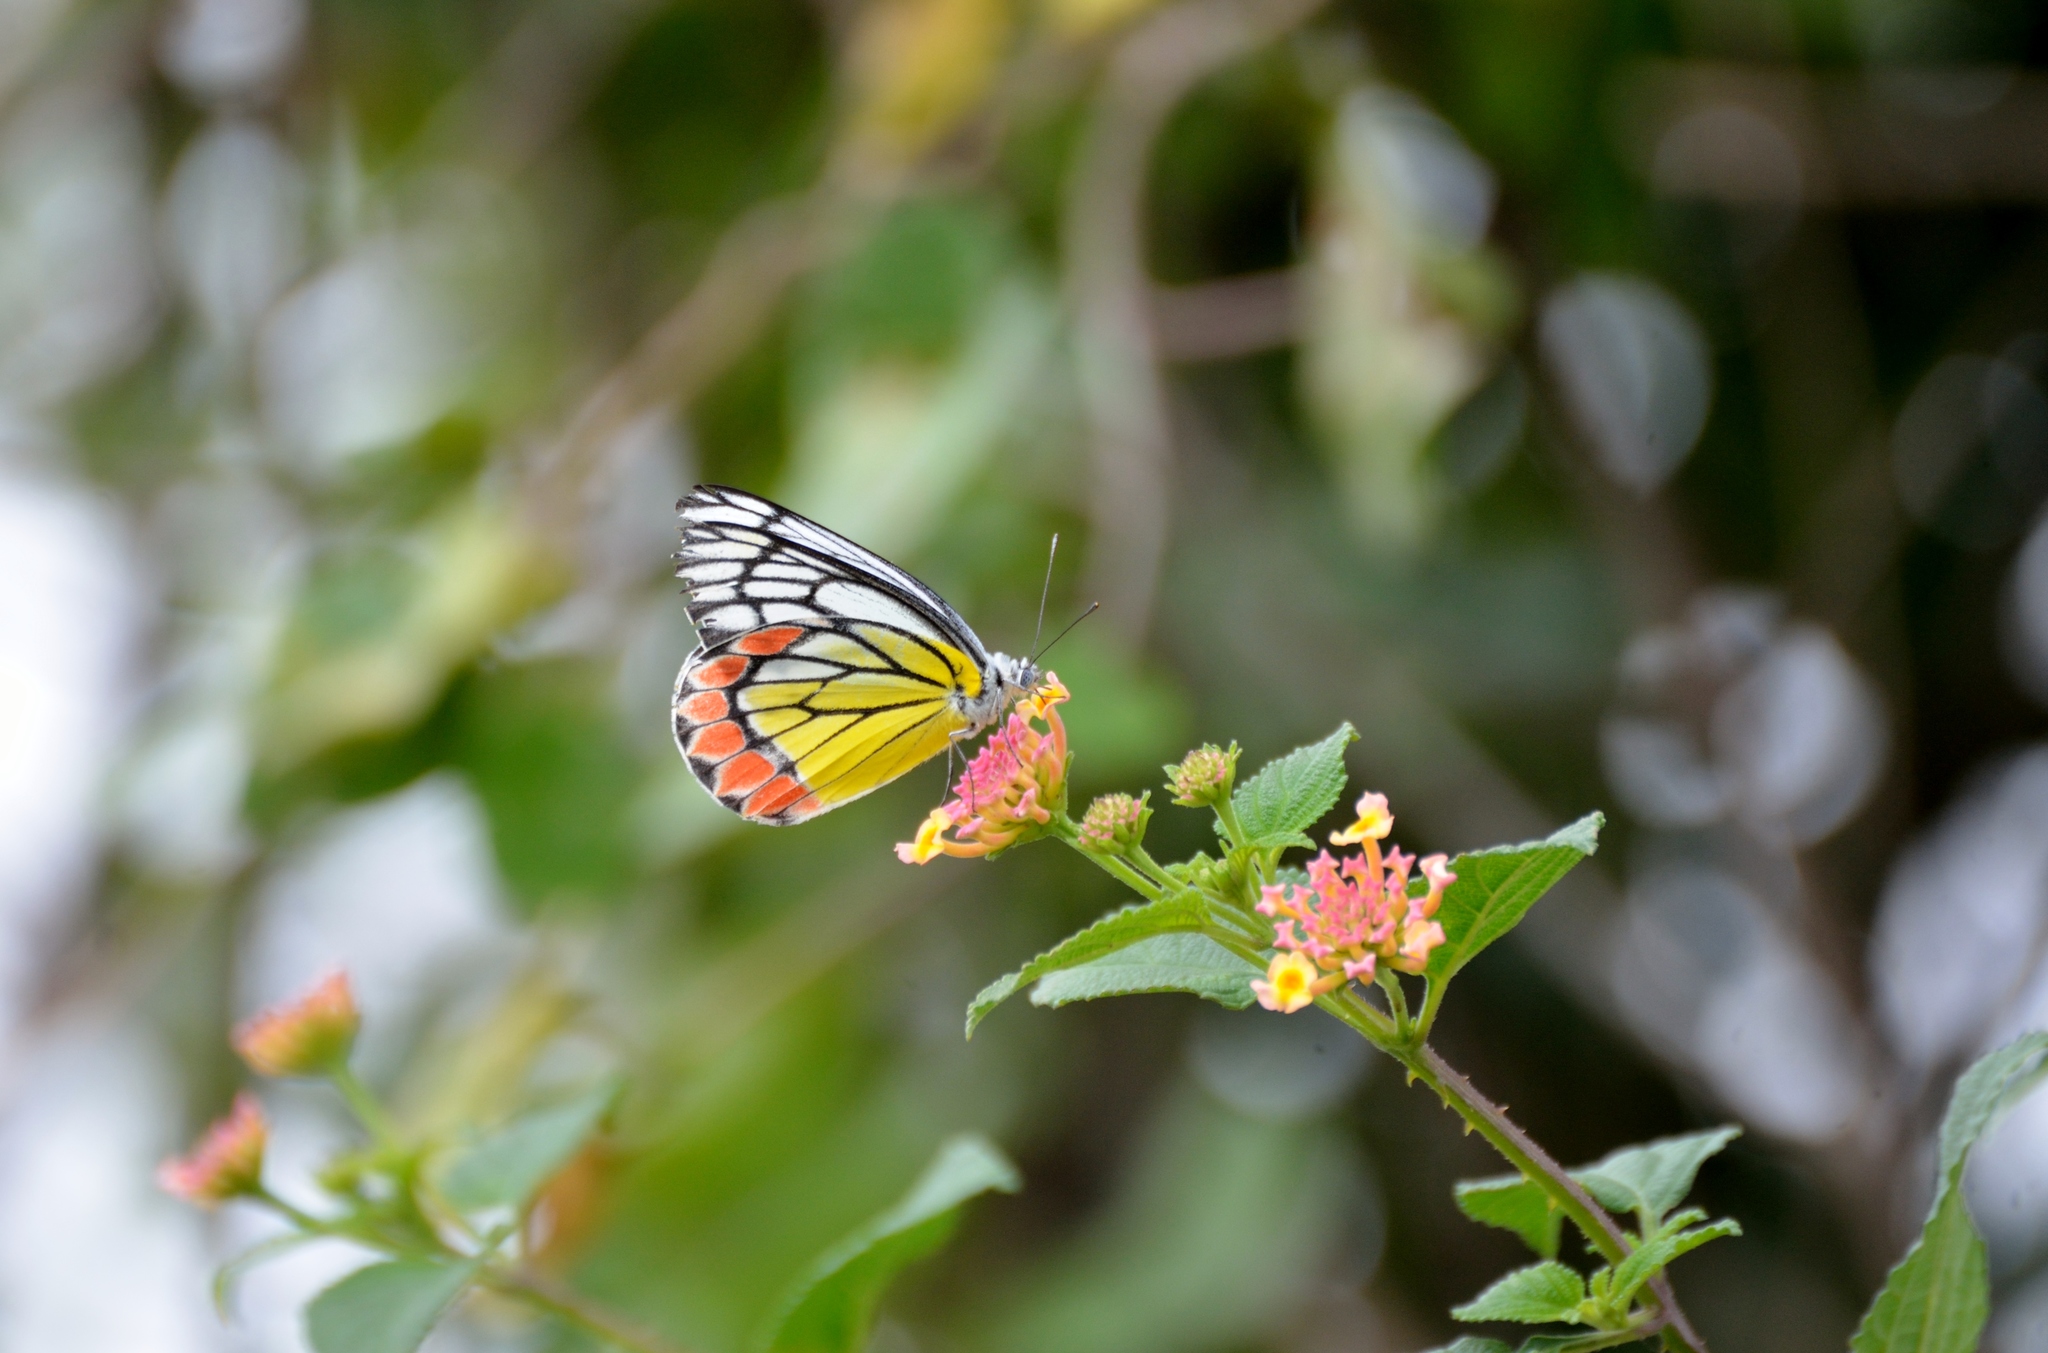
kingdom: Animalia
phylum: Arthropoda
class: Insecta
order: Lepidoptera
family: Pieridae
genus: Delias
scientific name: Delias eucharis
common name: Common jezebel
